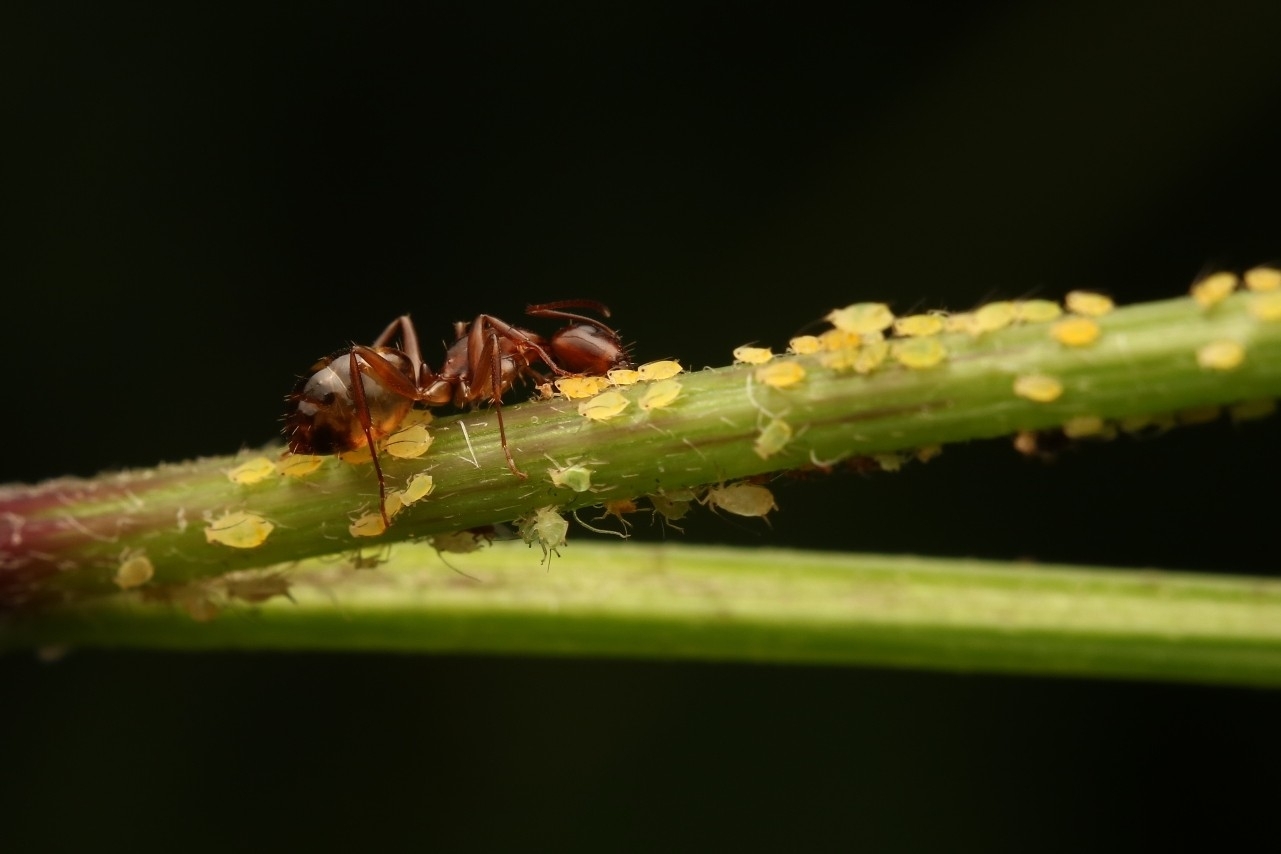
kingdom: Animalia
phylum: Arthropoda
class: Insecta
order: Hymenoptera
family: Formicidae
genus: Camponotus
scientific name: Camponotus subbarbatus
